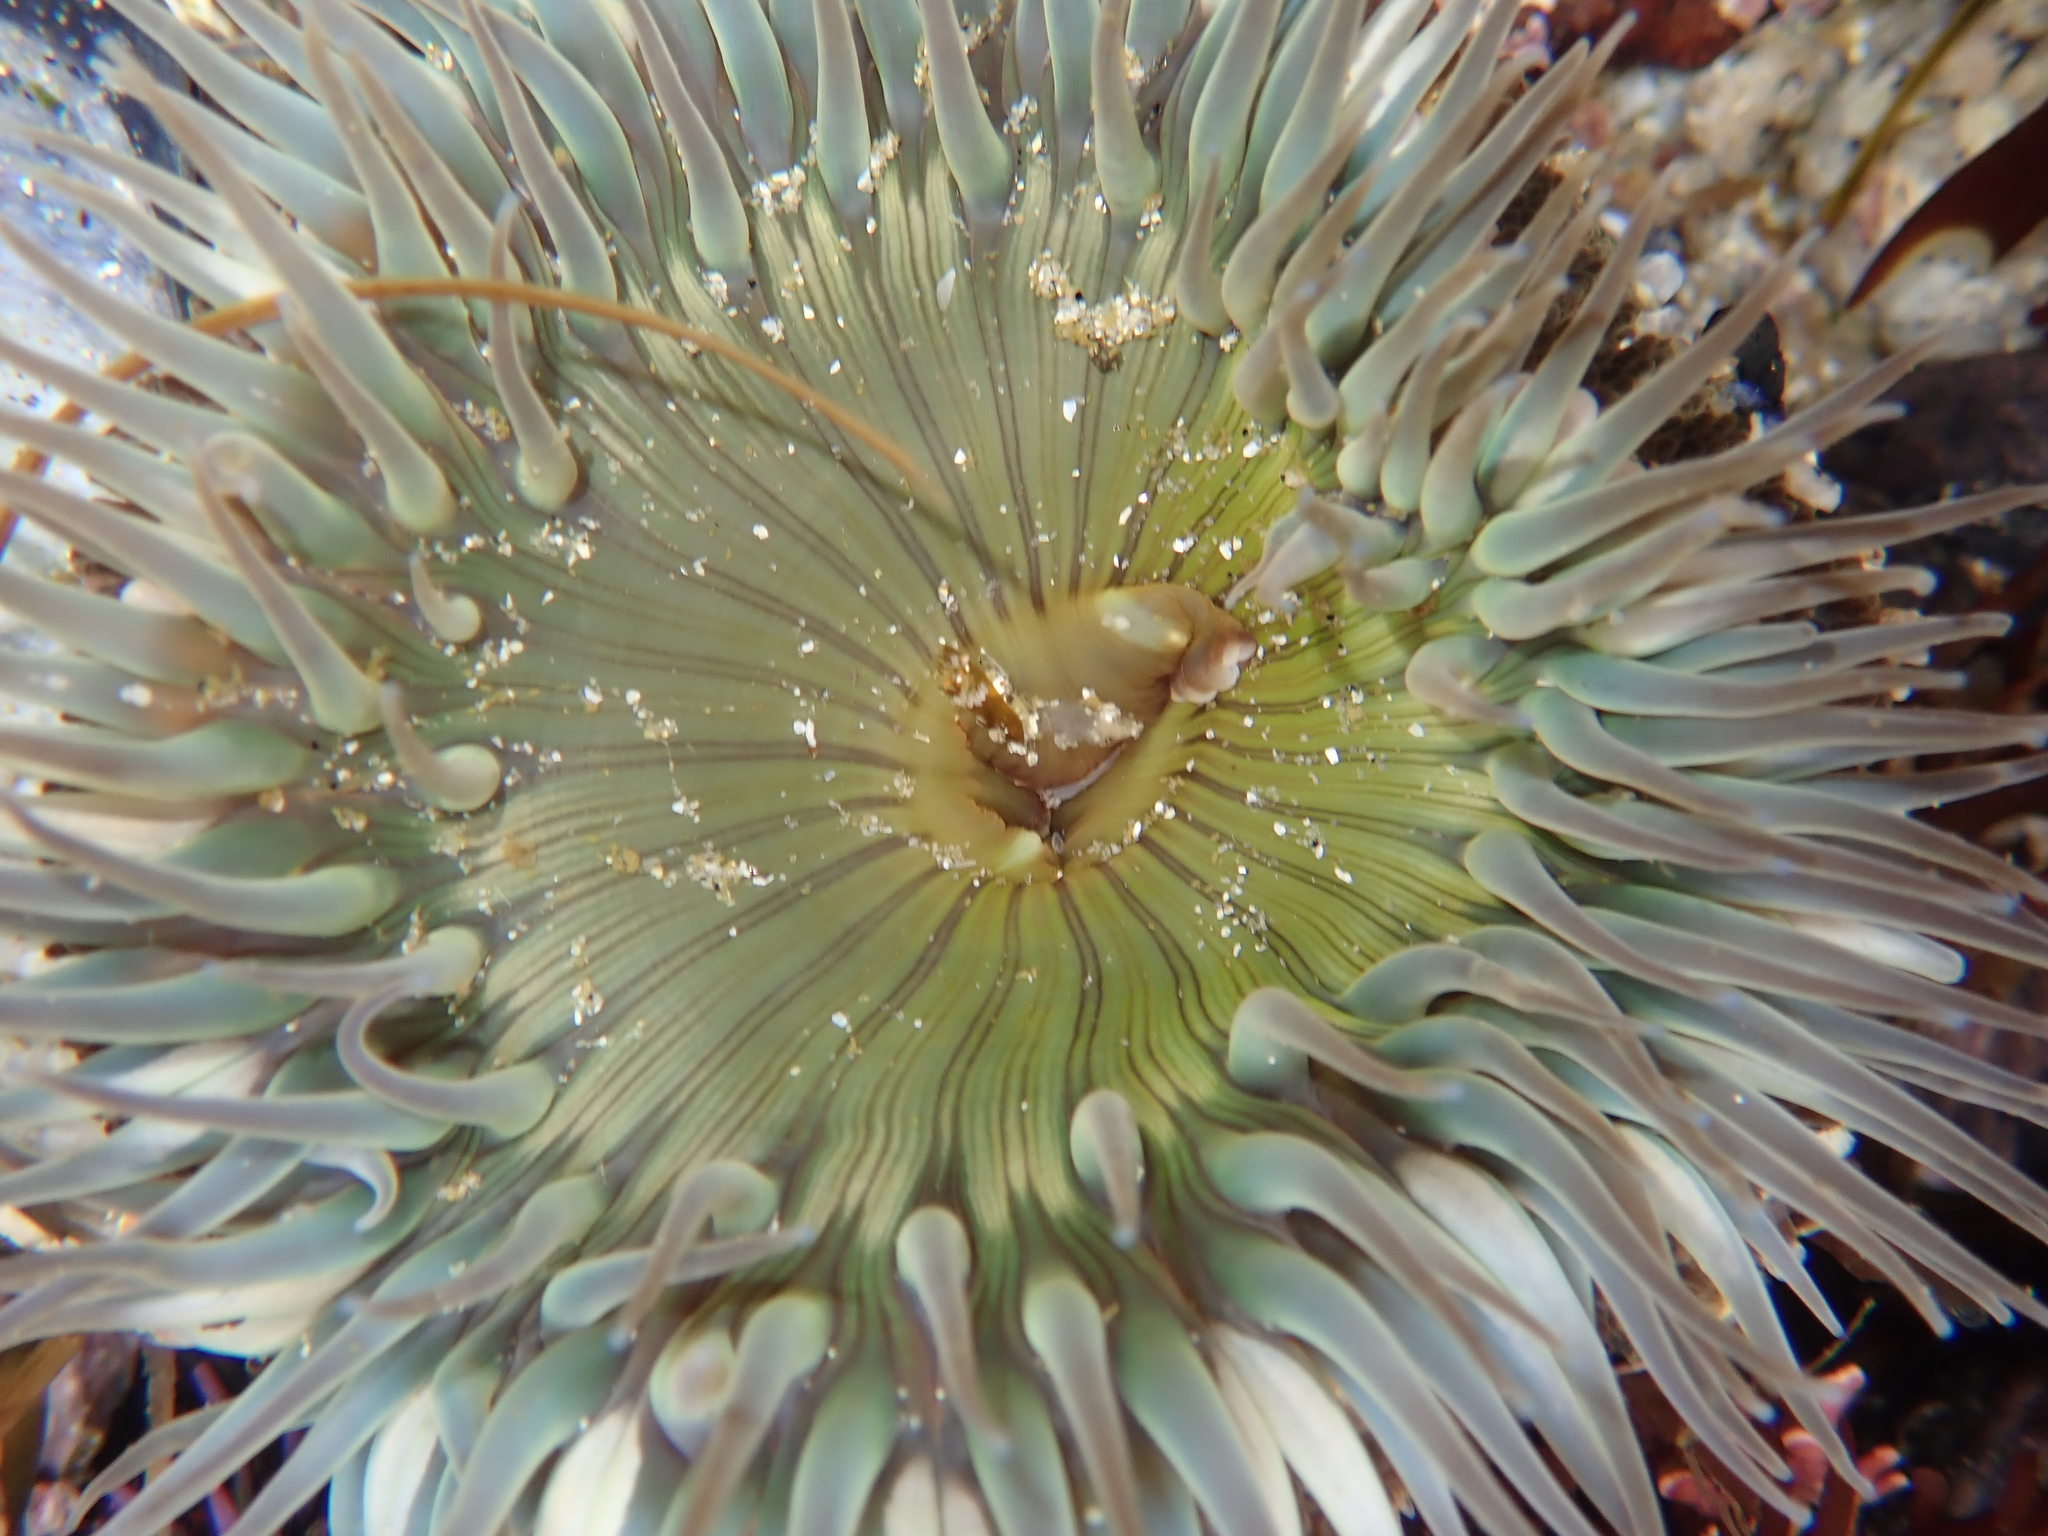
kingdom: Animalia
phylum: Cnidaria
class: Anthozoa
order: Actiniaria
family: Actiniidae
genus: Anthopleura
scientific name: Anthopleura sola
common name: Sun anemone
